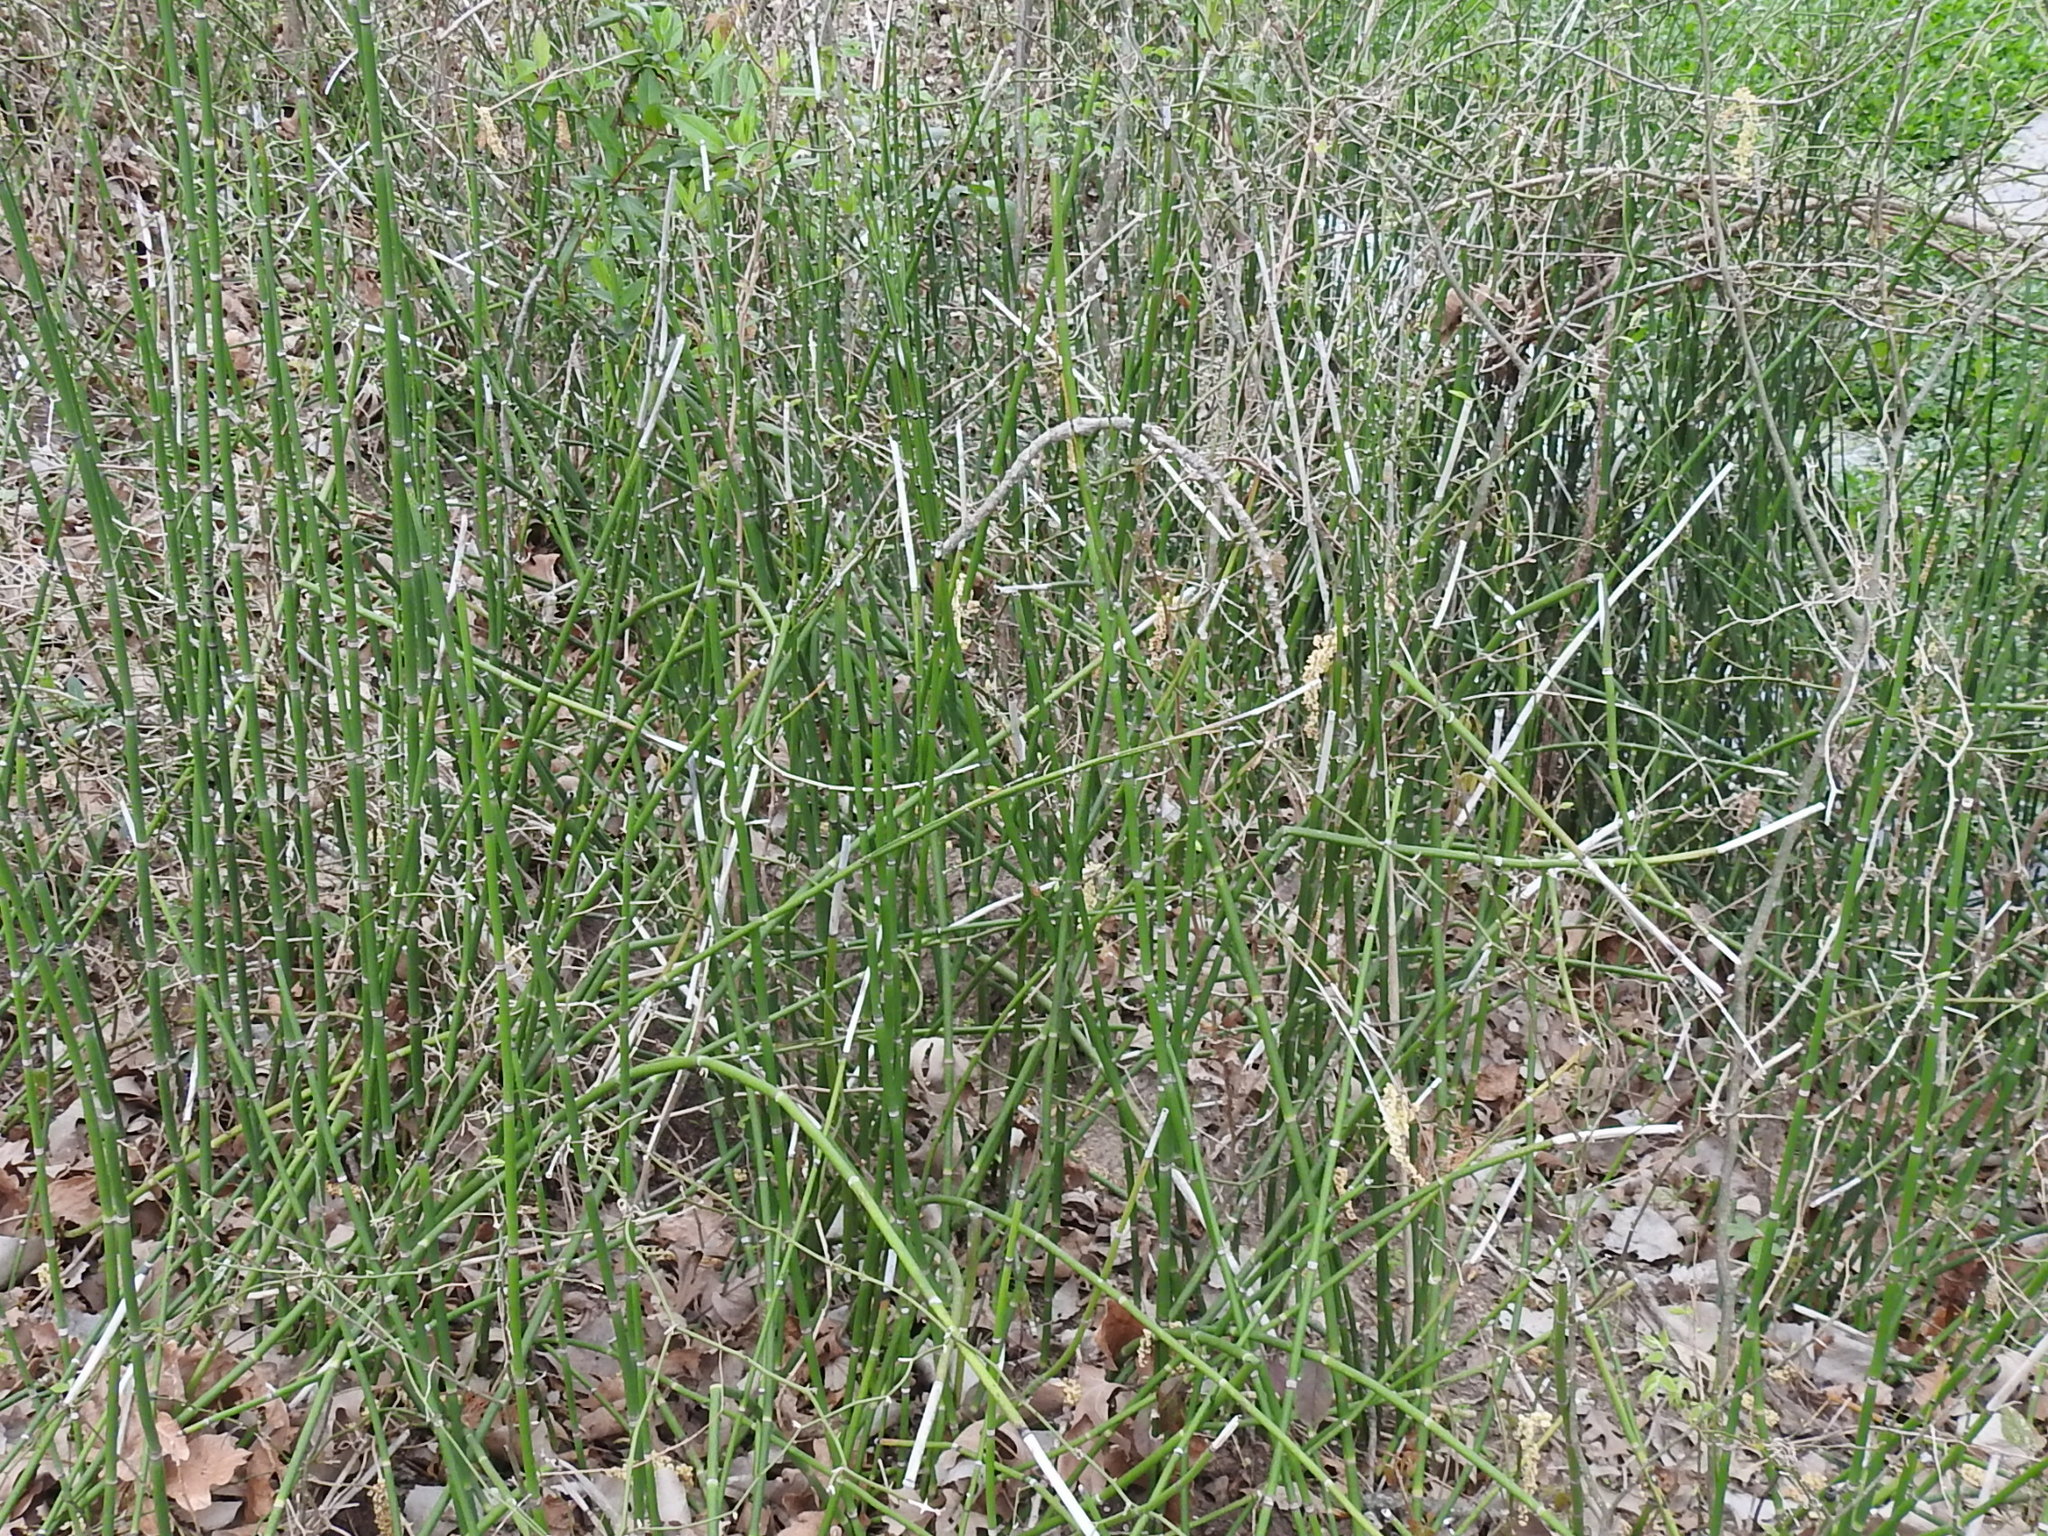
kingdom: Plantae
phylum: Tracheophyta
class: Polypodiopsida
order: Equisetales
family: Equisetaceae
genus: Equisetum
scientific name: Equisetum hyemale
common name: Rough horsetail
